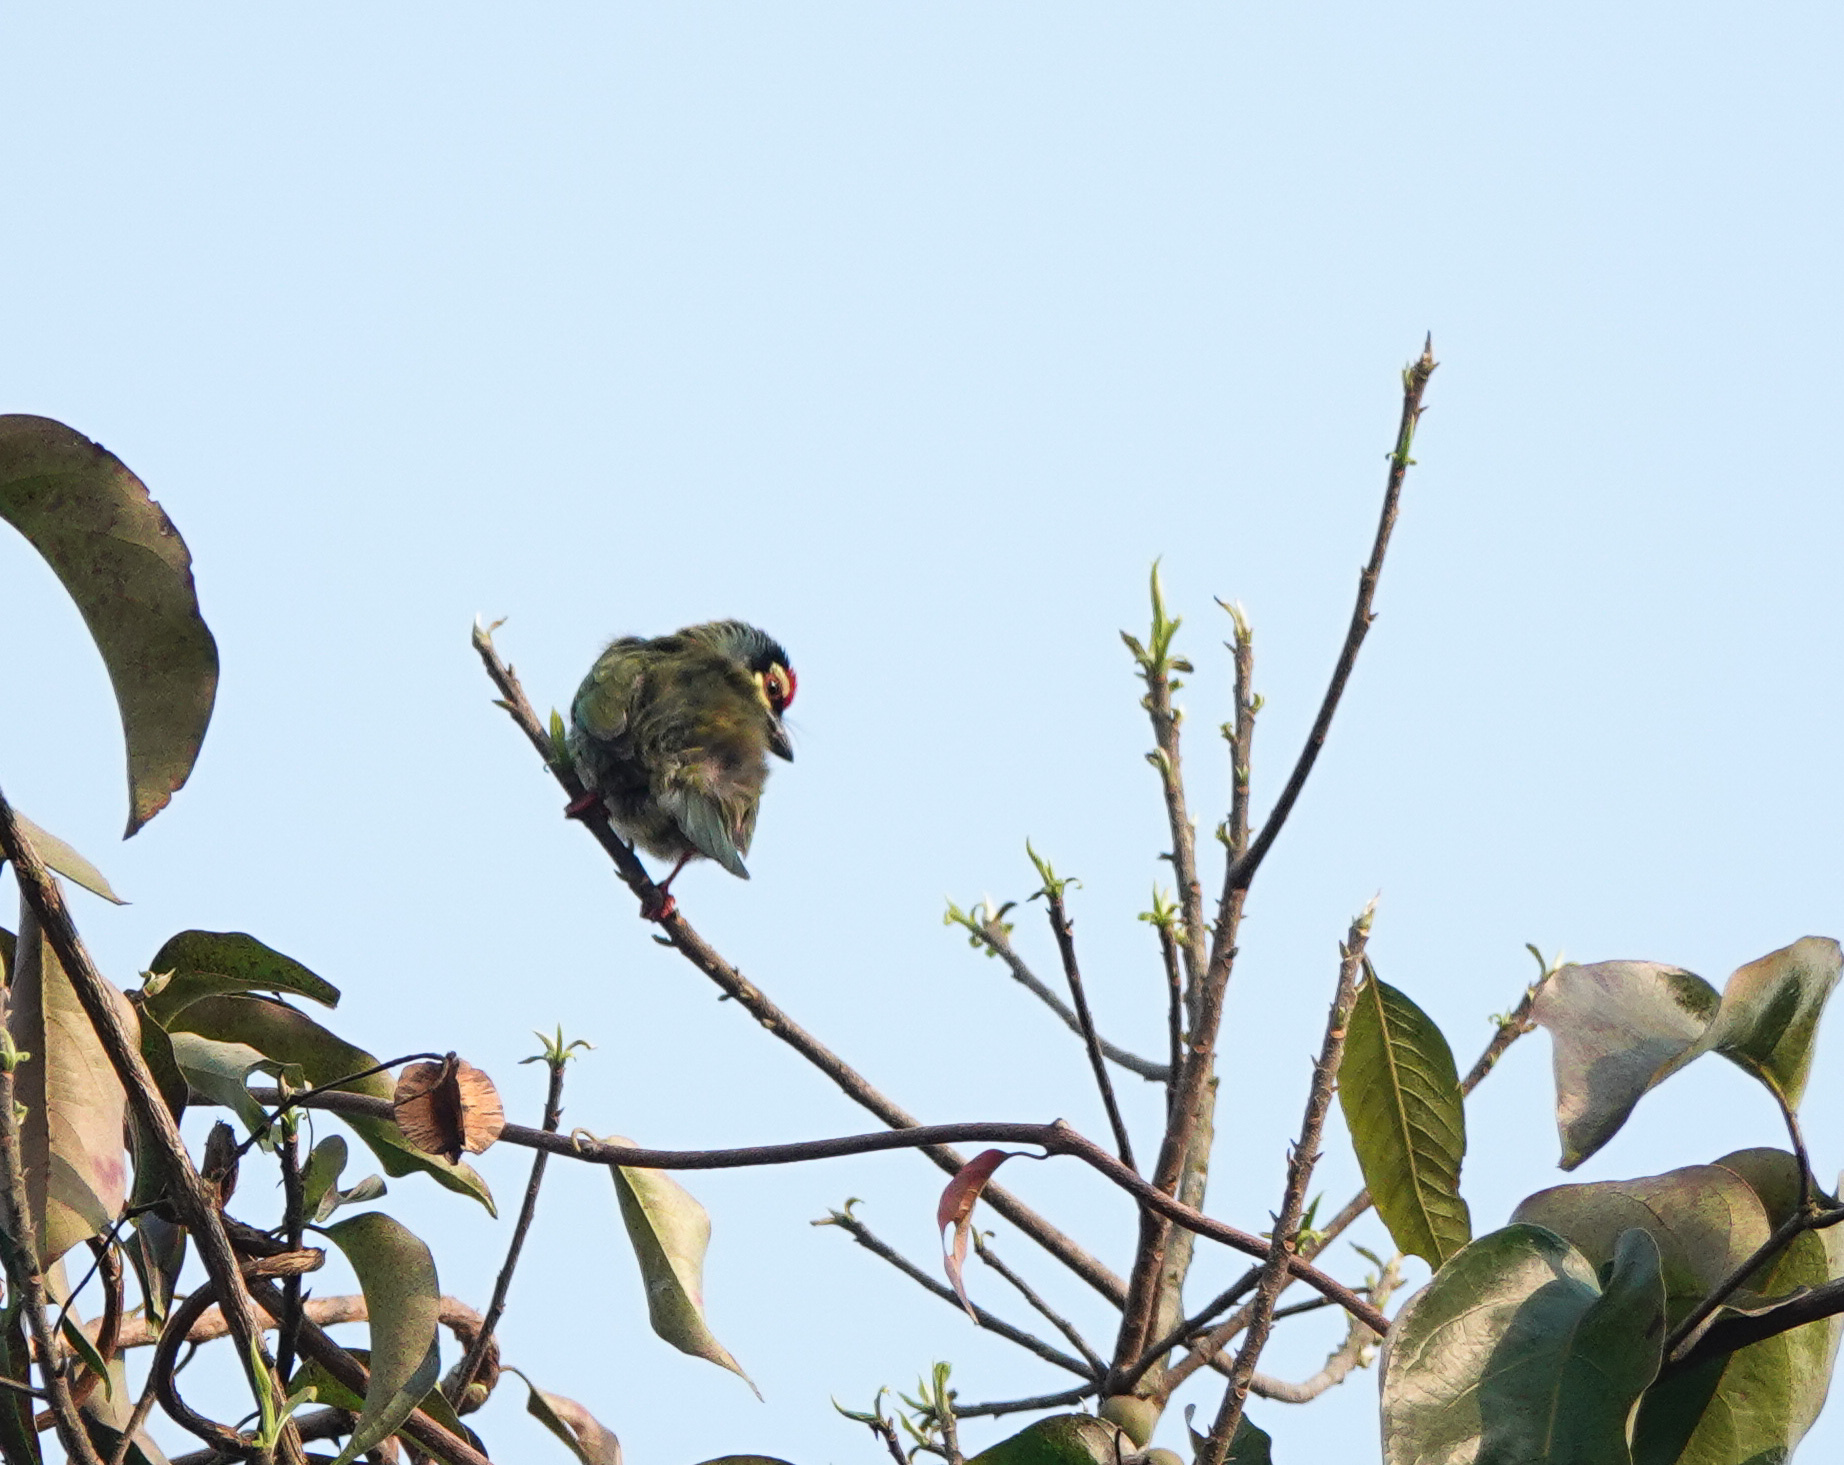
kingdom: Animalia
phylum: Chordata
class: Aves
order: Piciformes
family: Megalaimidae
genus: Psilopogon
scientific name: Psilopogon haemacephalus
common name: Coppersmith barbet
